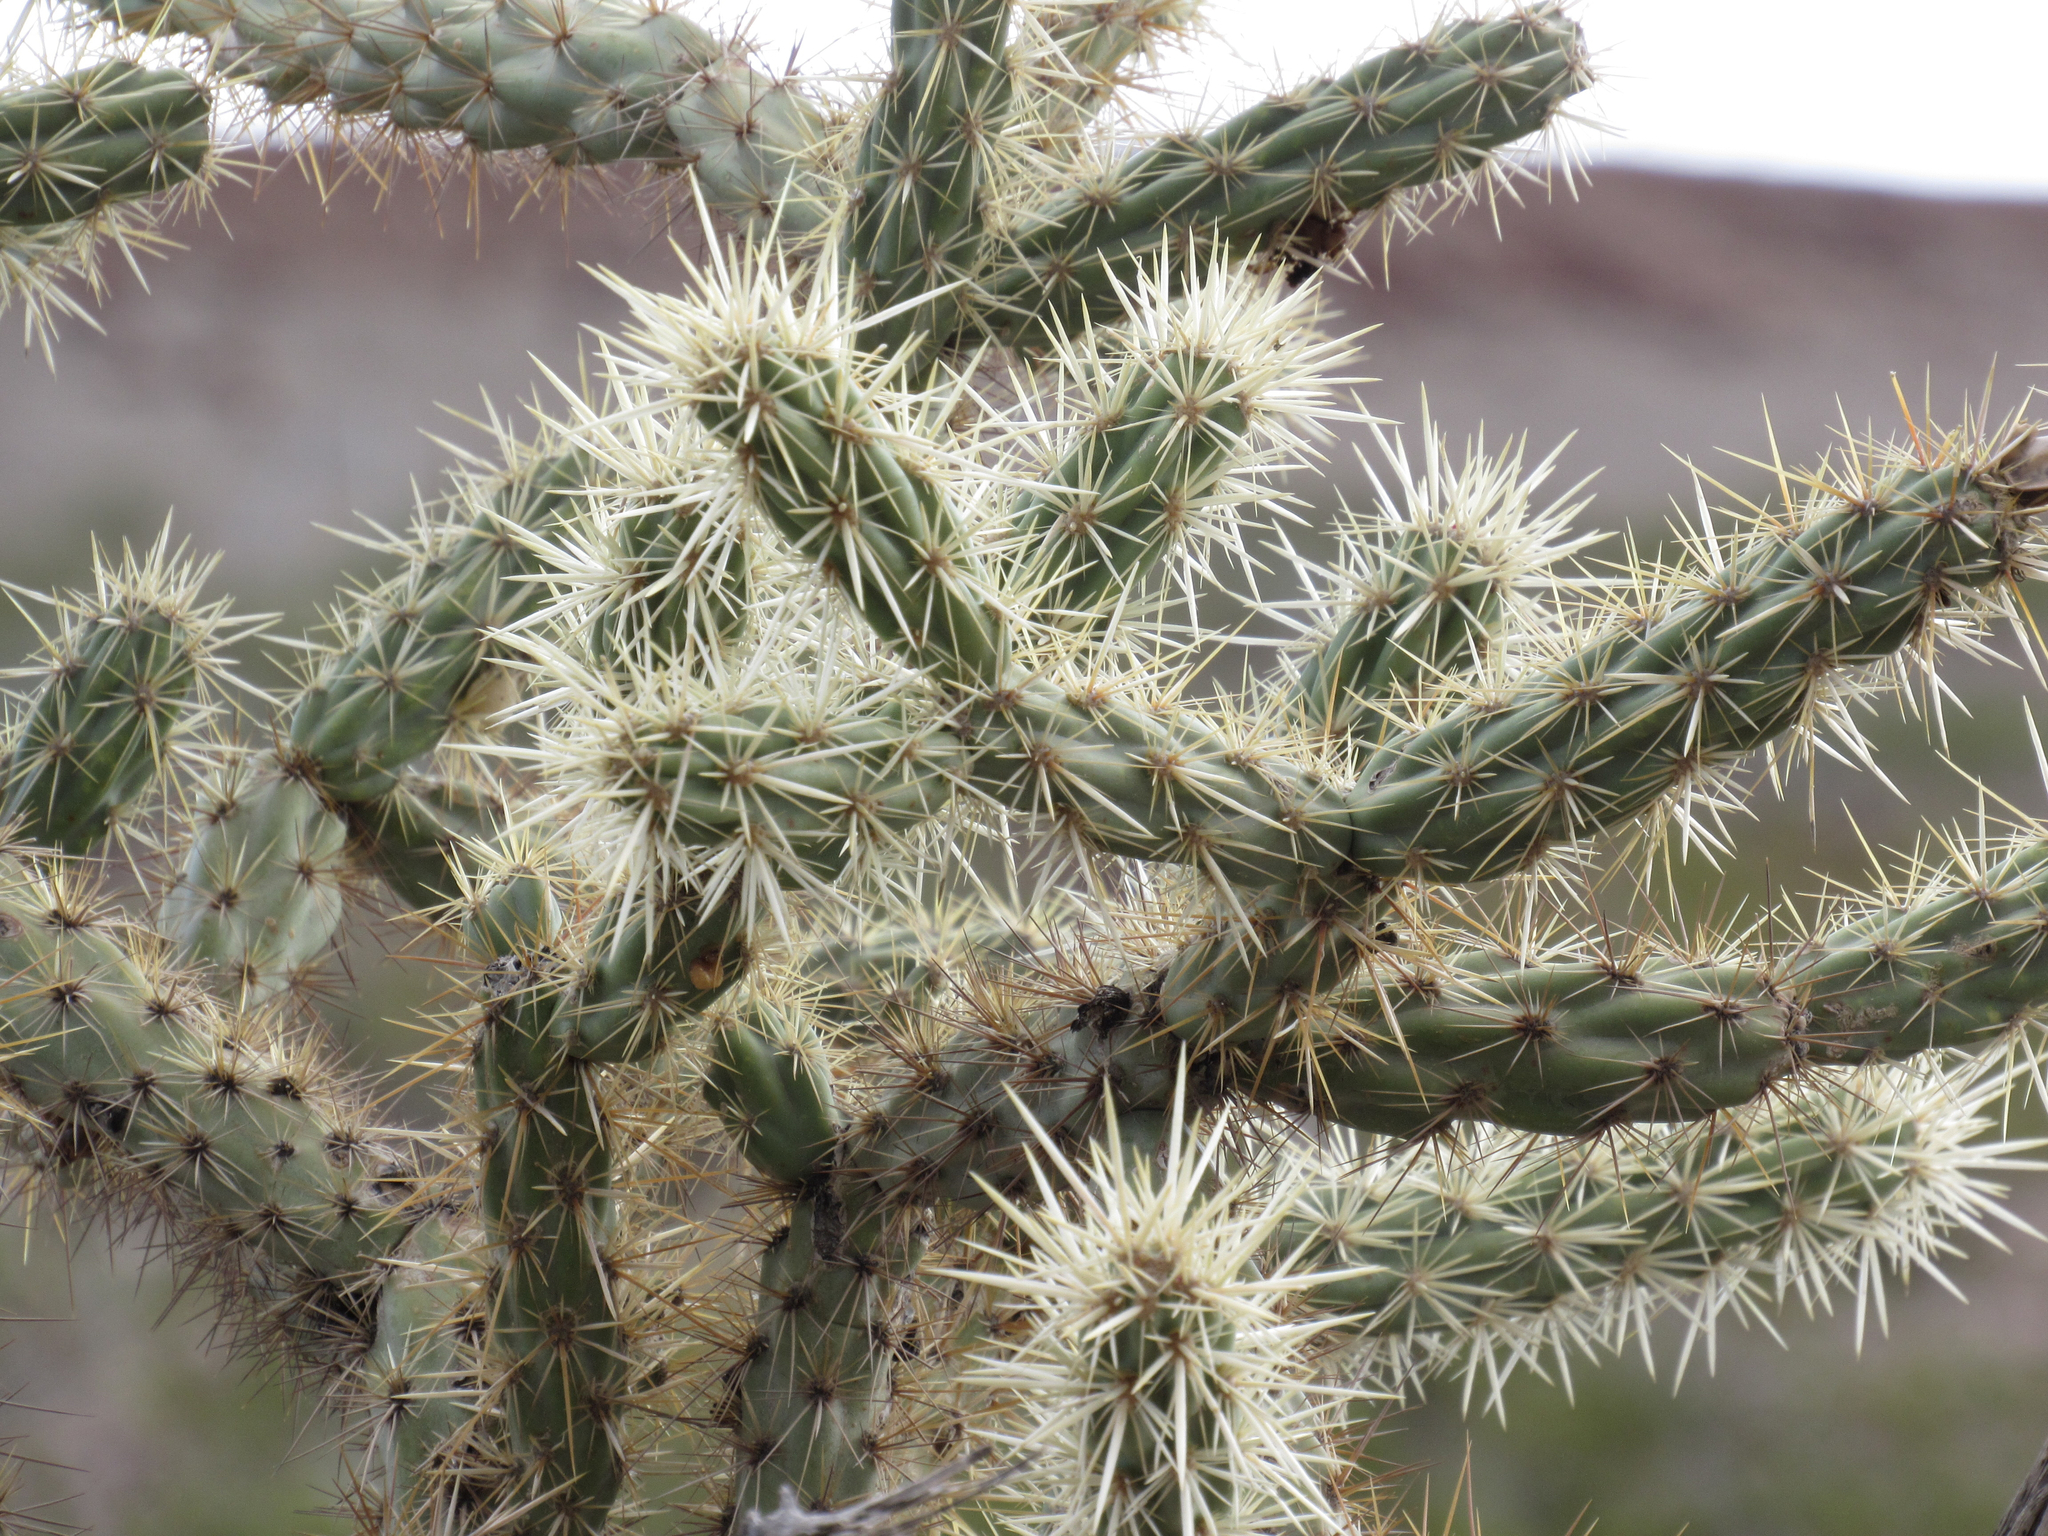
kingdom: Plantae
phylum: Tracheophyta
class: Magnoliopsida
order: Caryophyllales
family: Cactaceae
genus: Cylindropuntia
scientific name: Cylindropuntia acanthocarpa
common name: Buckhorn cholla
